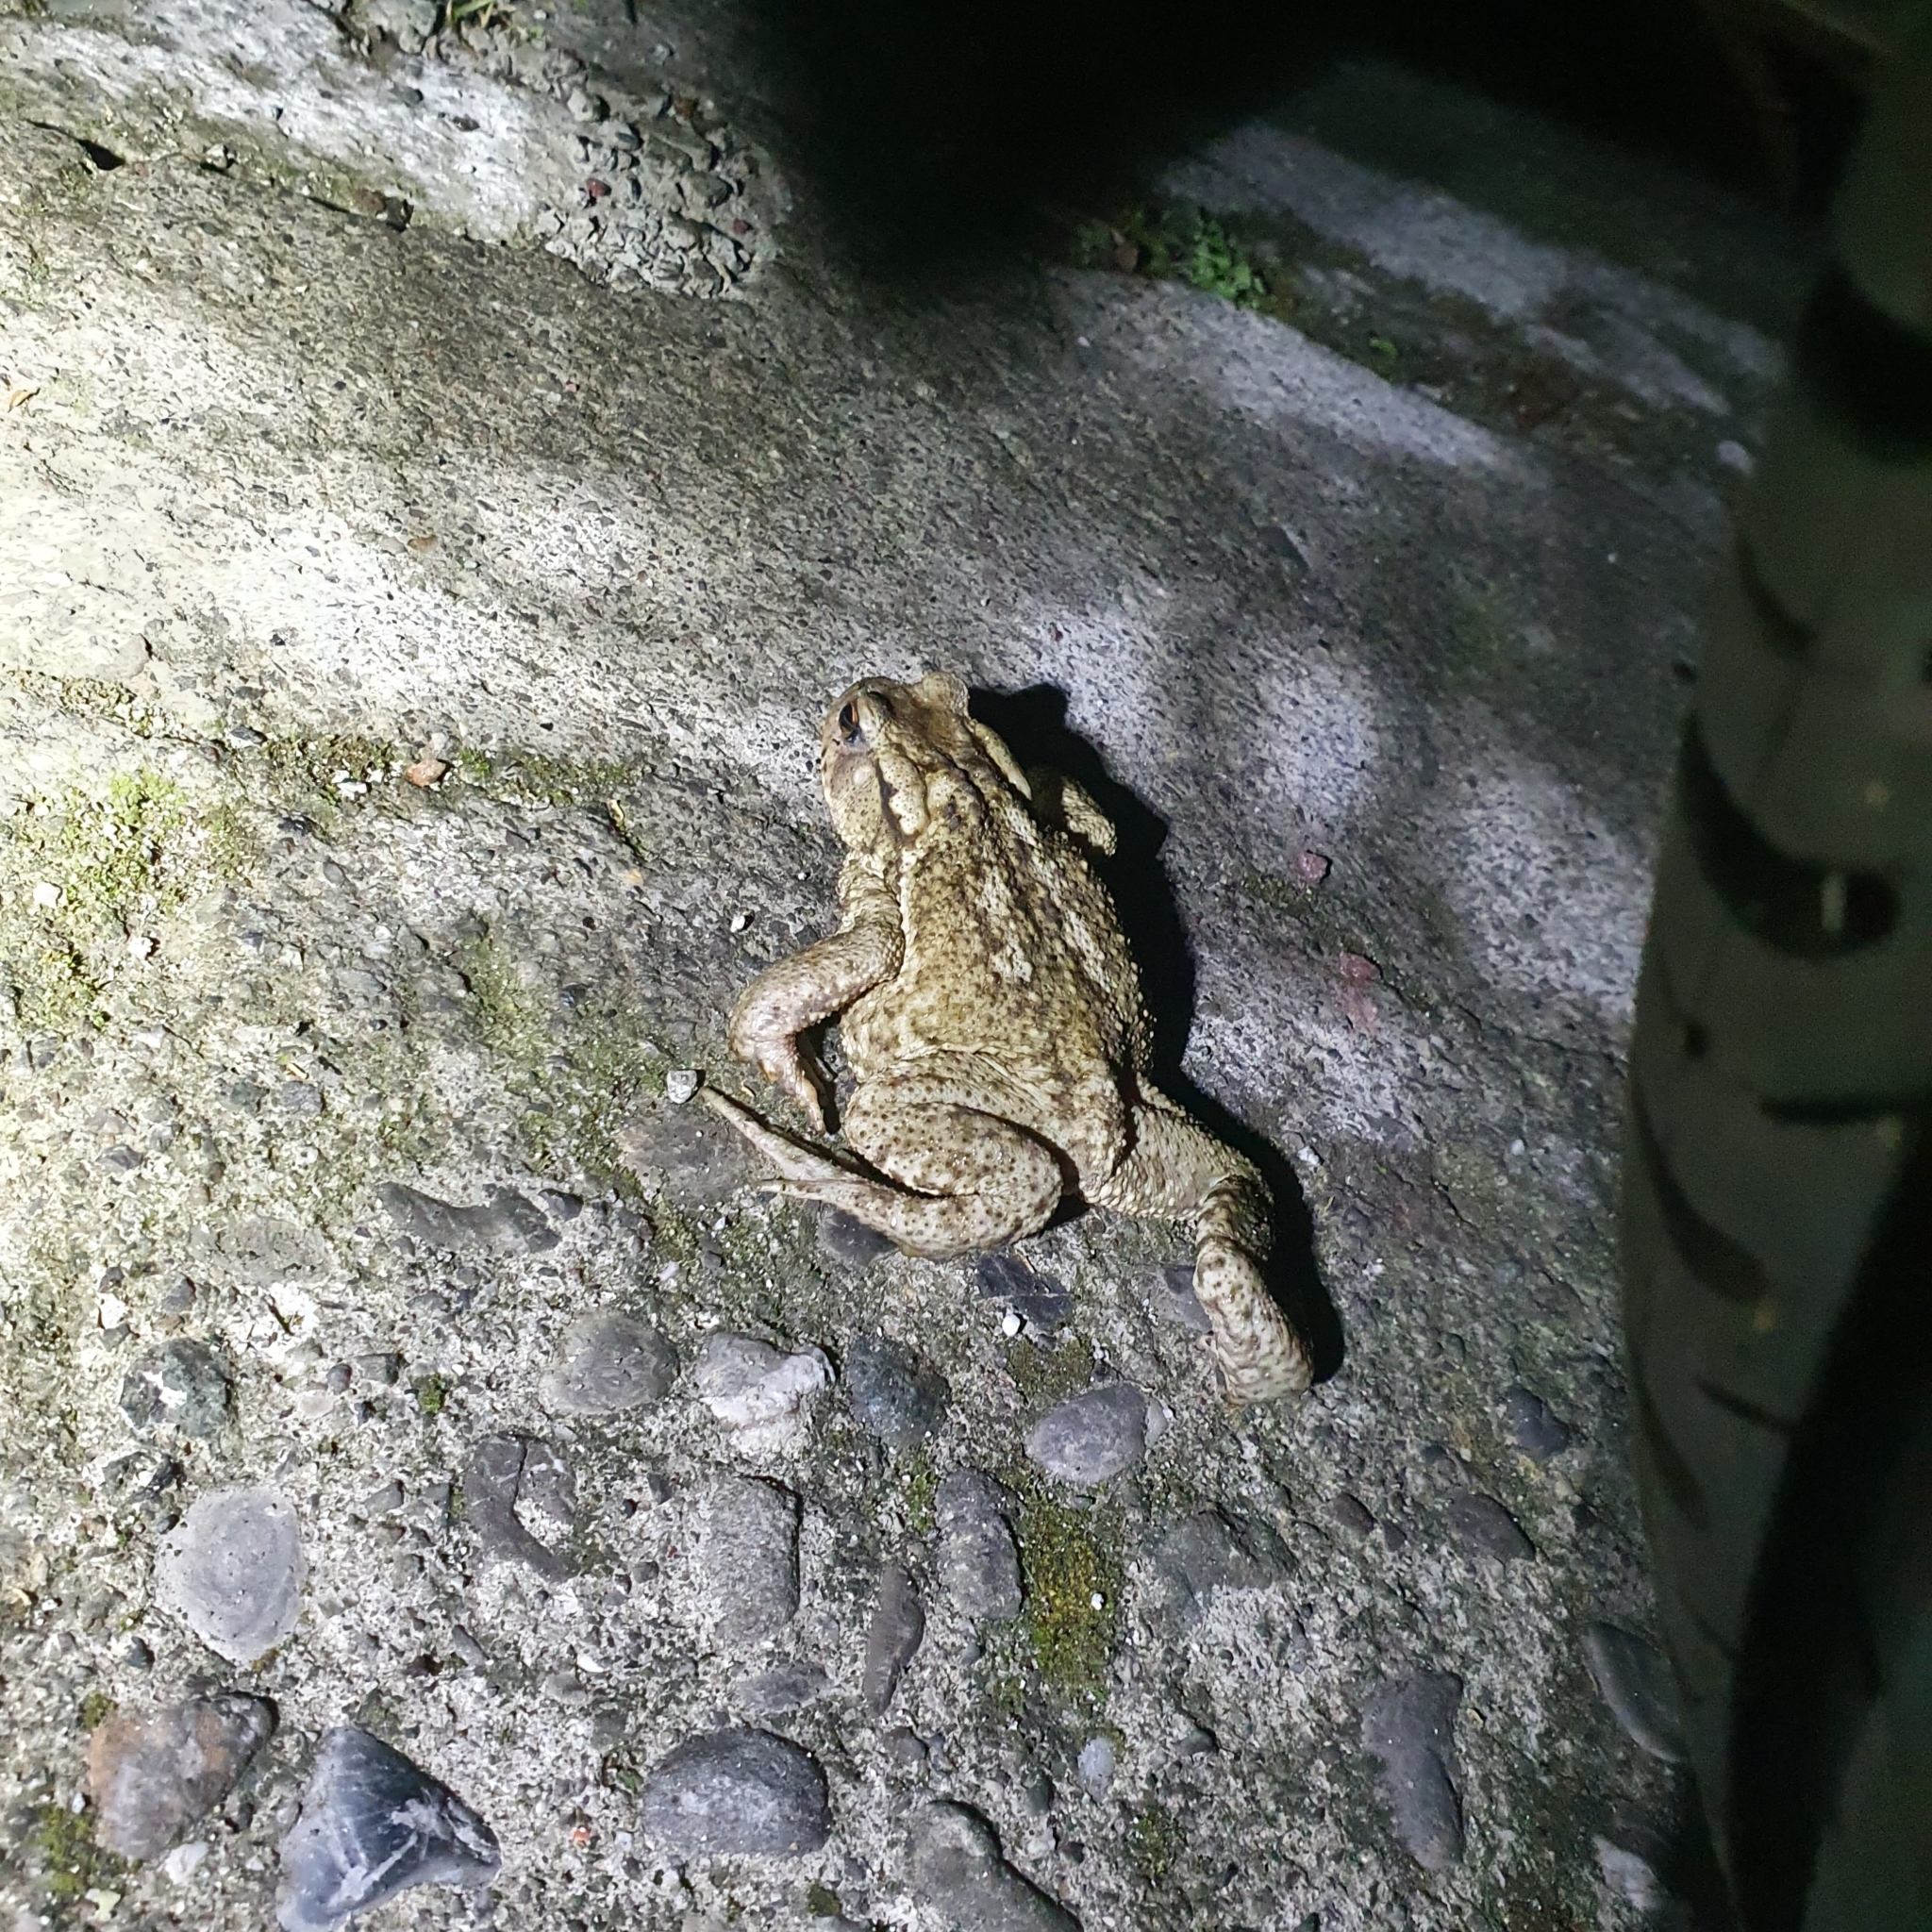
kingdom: Animalia
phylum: Chordata
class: Amphibia
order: Anura
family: Bufonidae
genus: Bufo
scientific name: Bufo bufo
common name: Common toad
